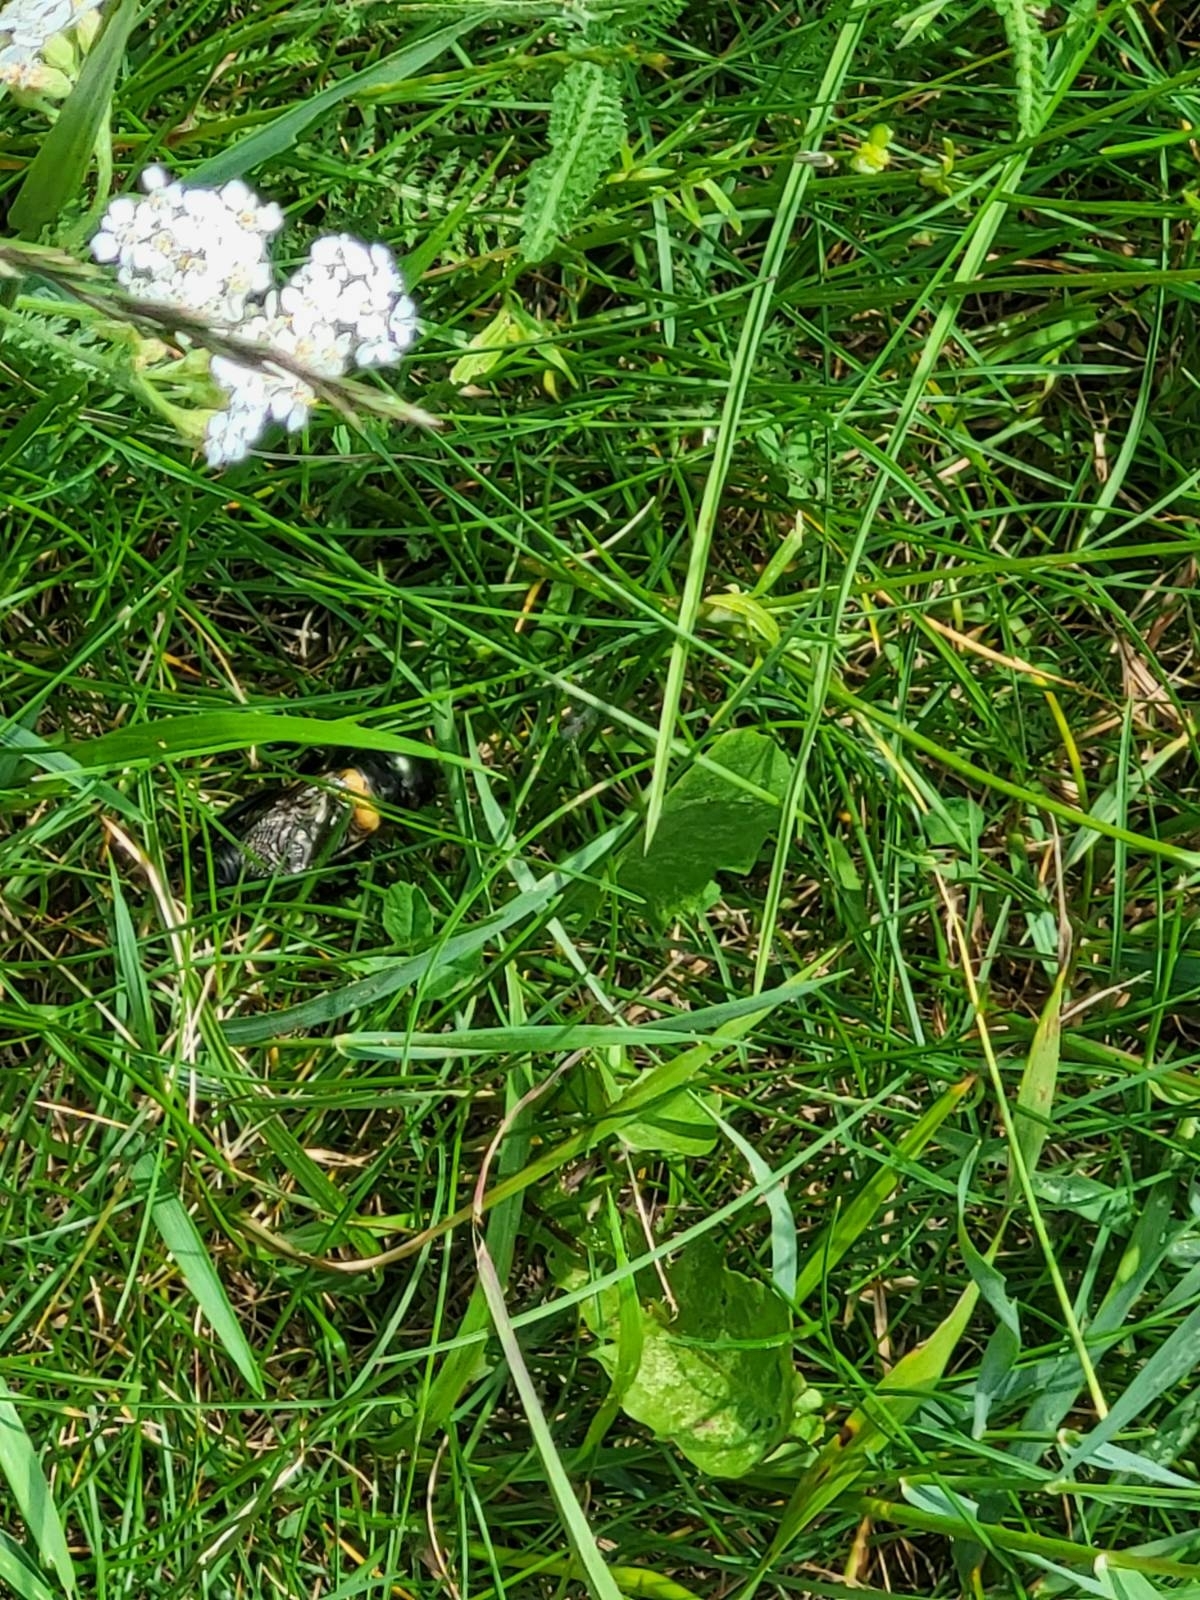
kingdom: Animalia
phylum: Arthropoda
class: Insecta
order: Orthoptera
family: Gryllidae
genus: Gryllus
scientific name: Gryllus campestris
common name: Field cricket
